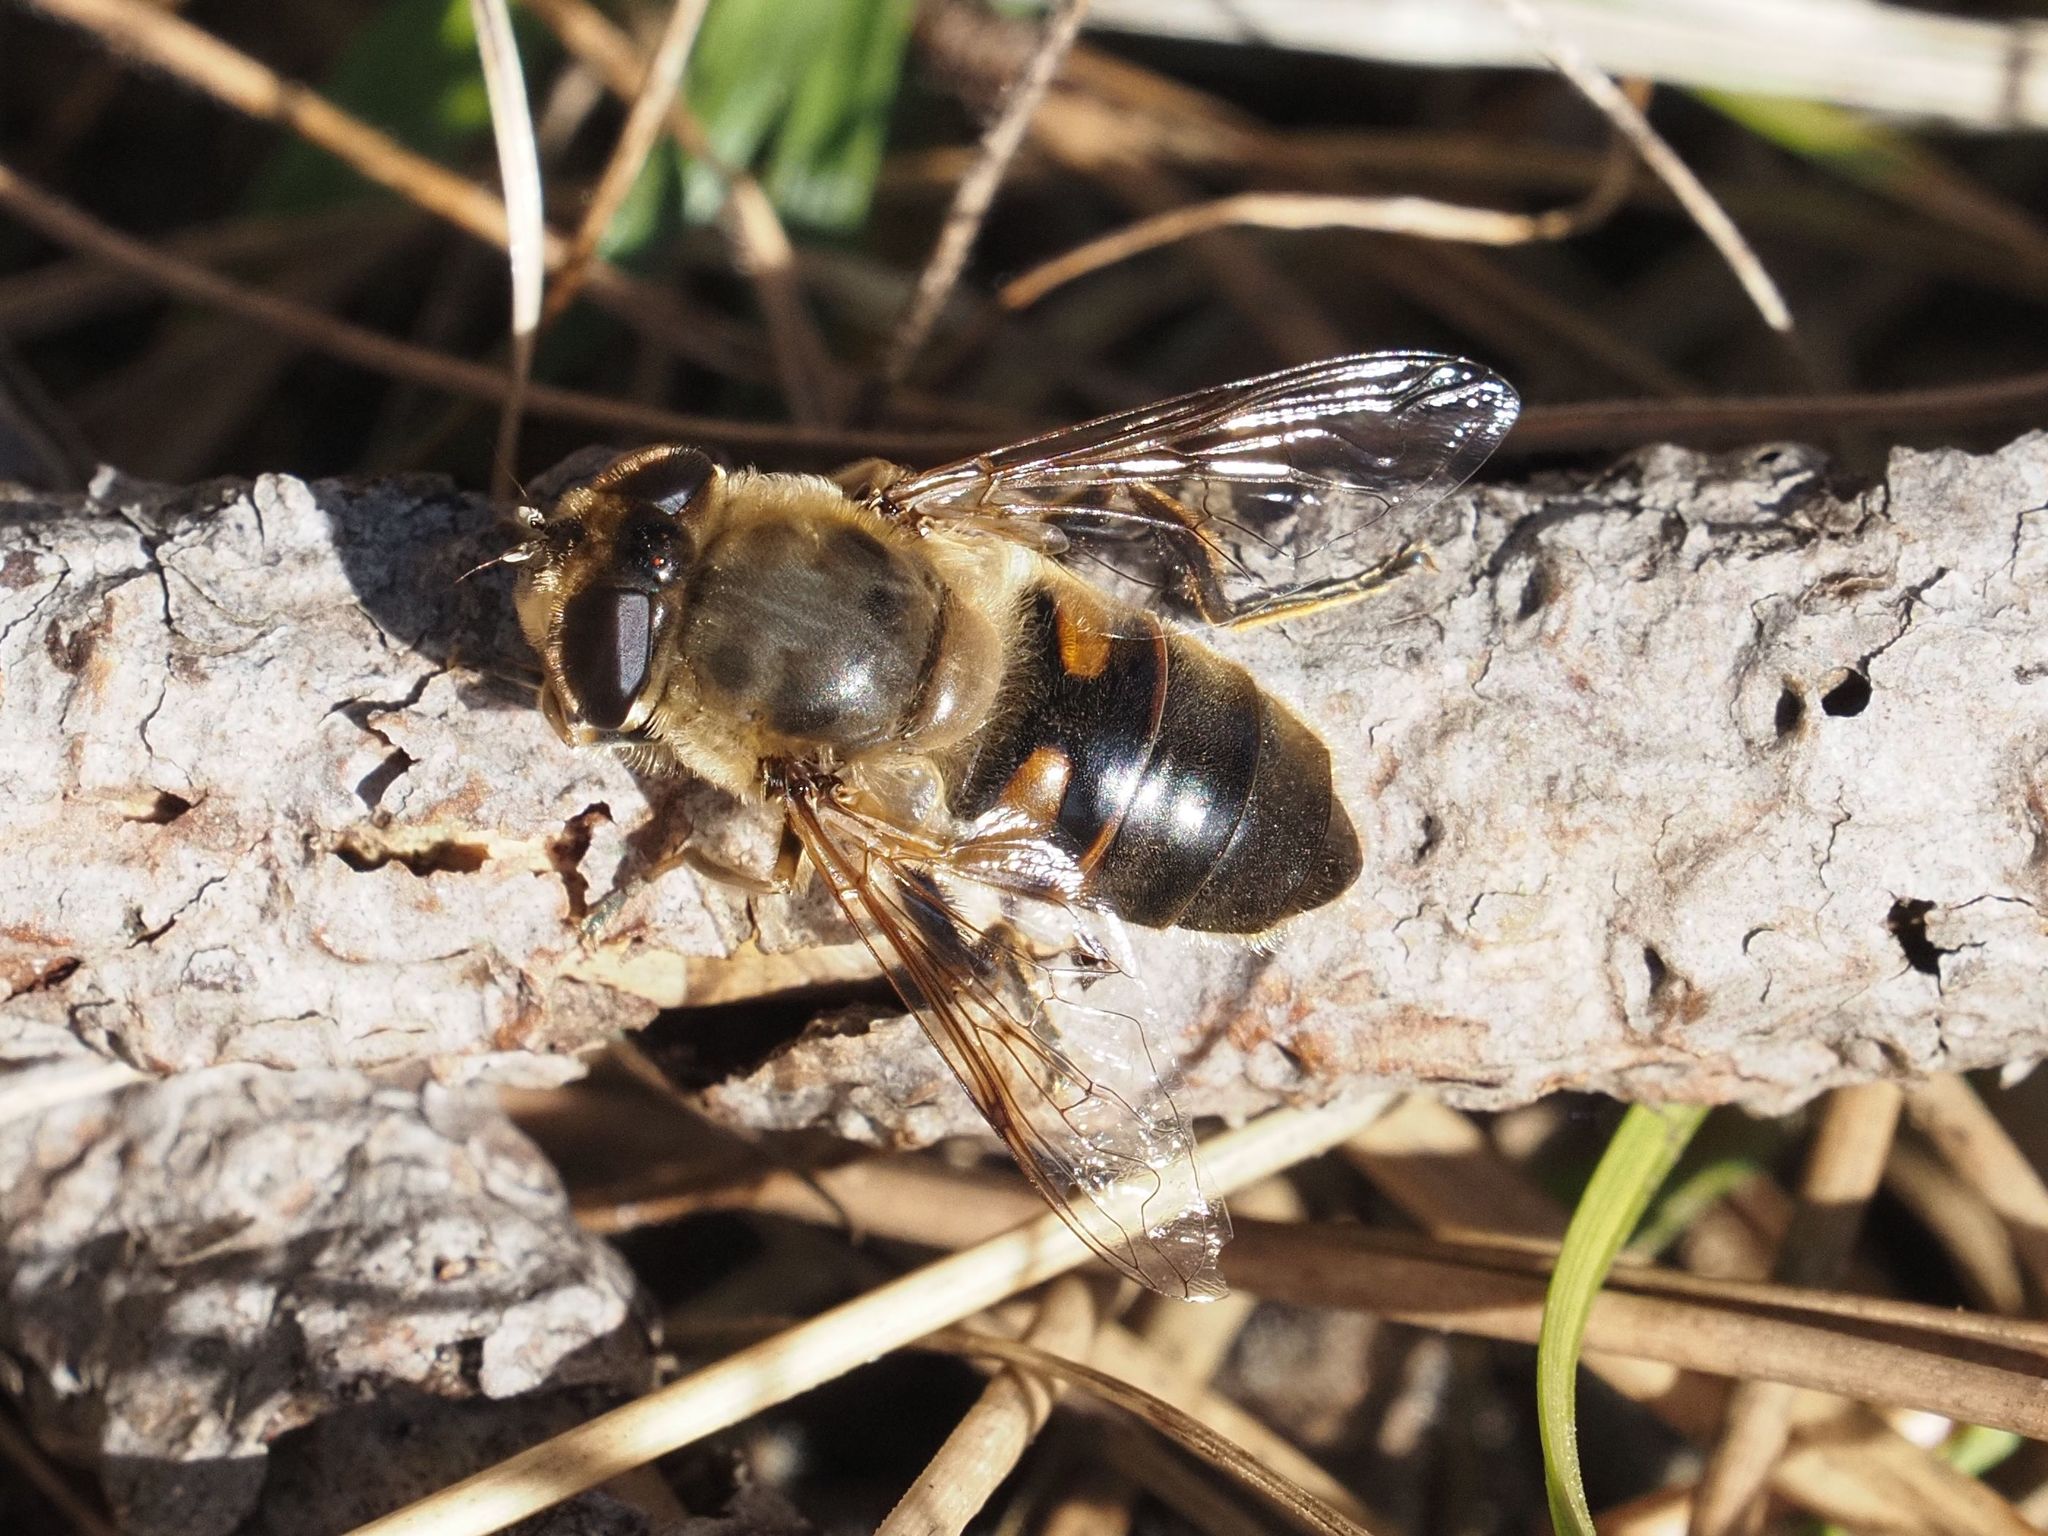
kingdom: Animalia
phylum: Arthropoda
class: Insecta
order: Diptera
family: Syrphidae
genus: Eristalis
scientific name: Eristalis tenax
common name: Drone fly
